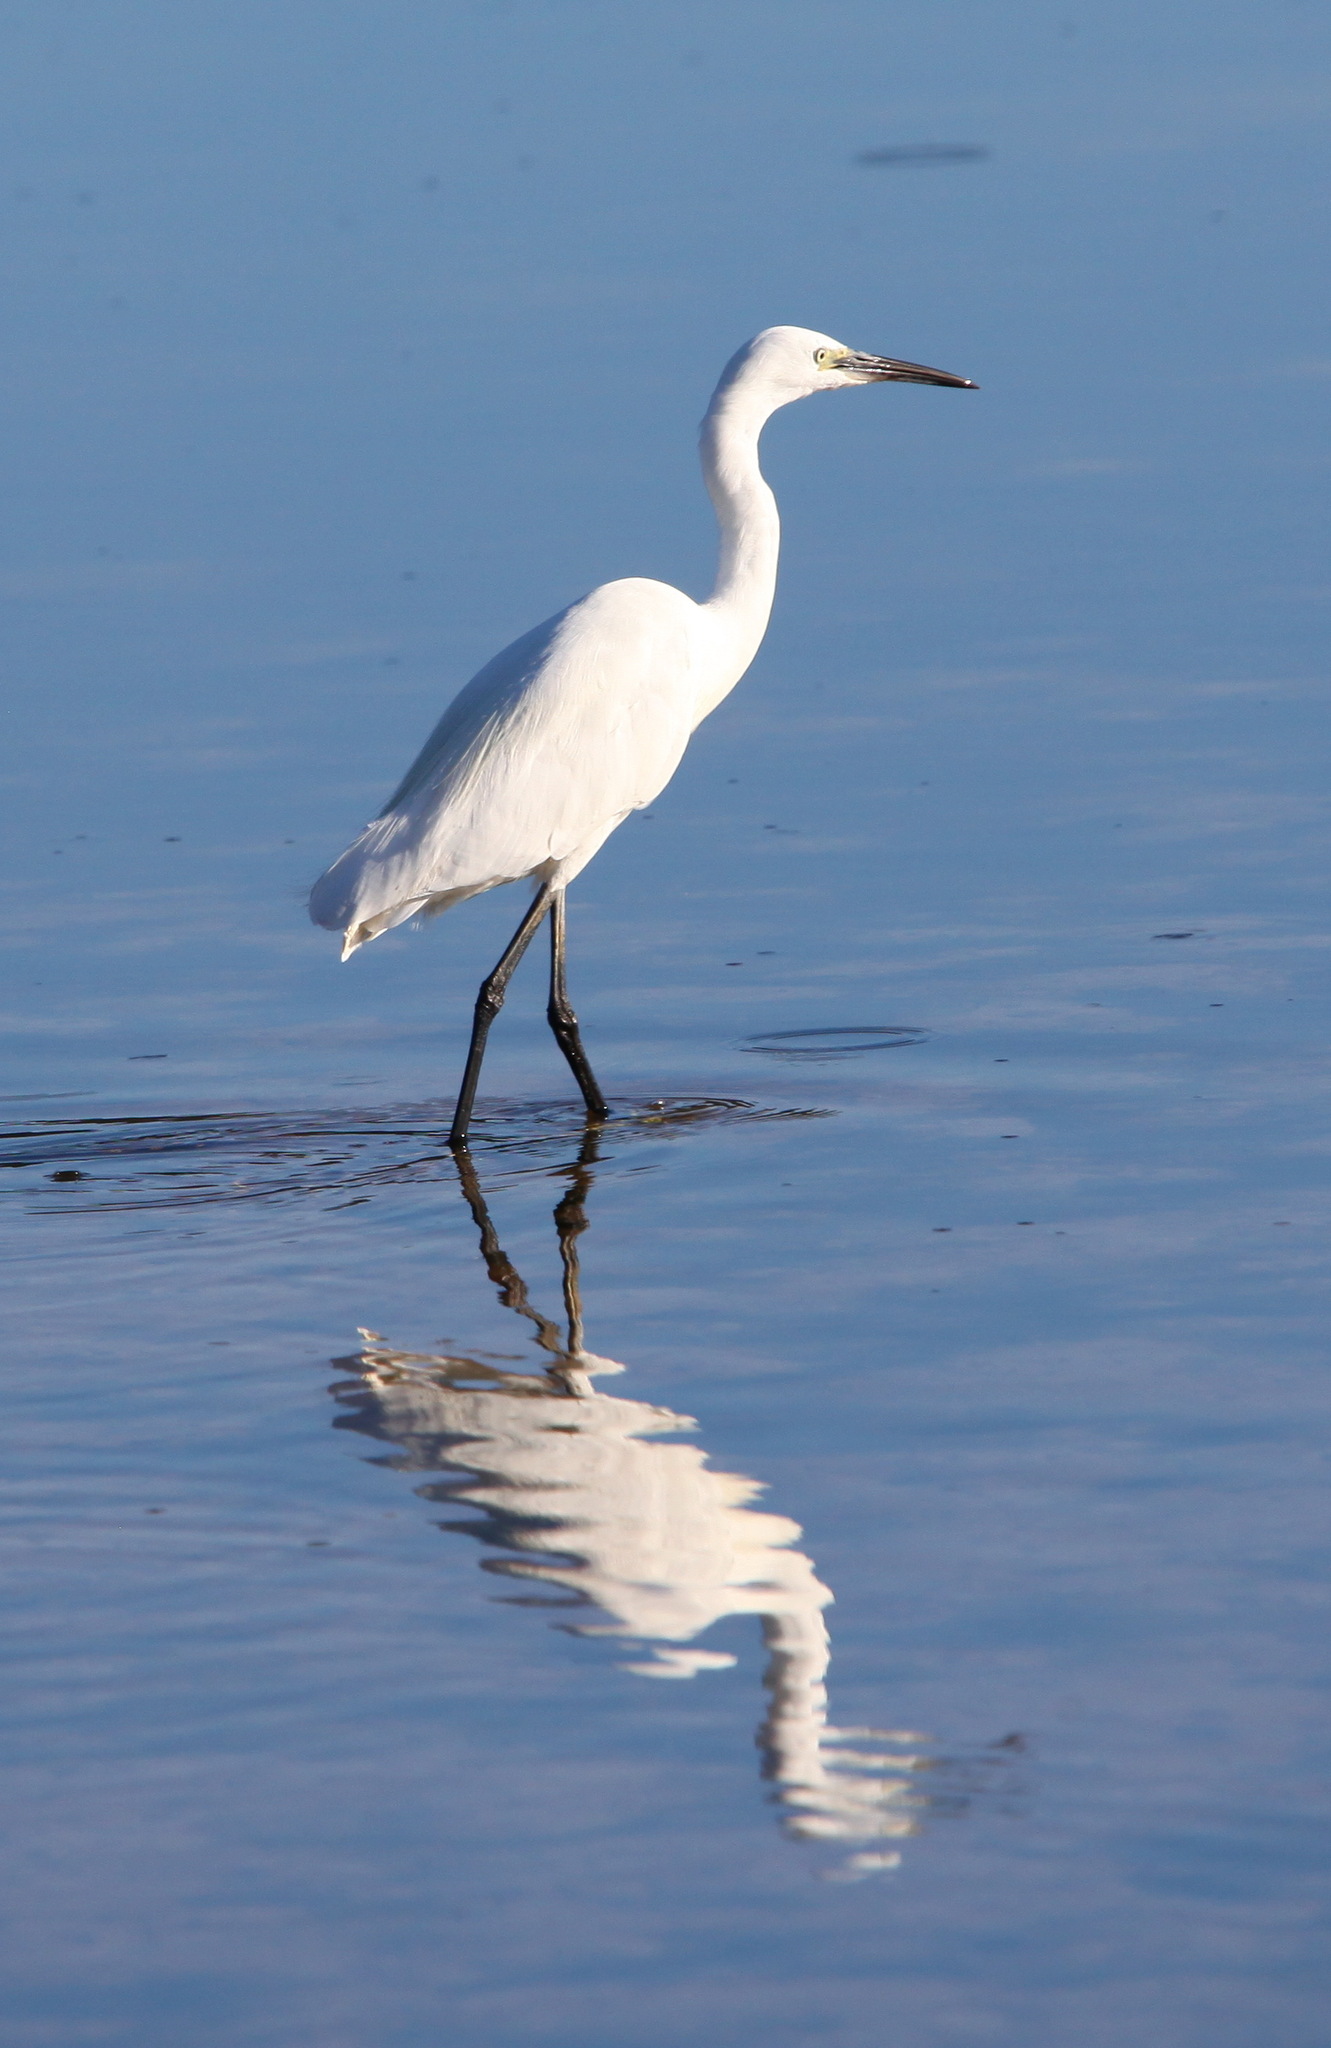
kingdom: Animalia
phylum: Chordata
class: Aves
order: Pelecaniformes
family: Ardeidae
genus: Egretta
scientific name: Egretta garzetta
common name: Little egret
